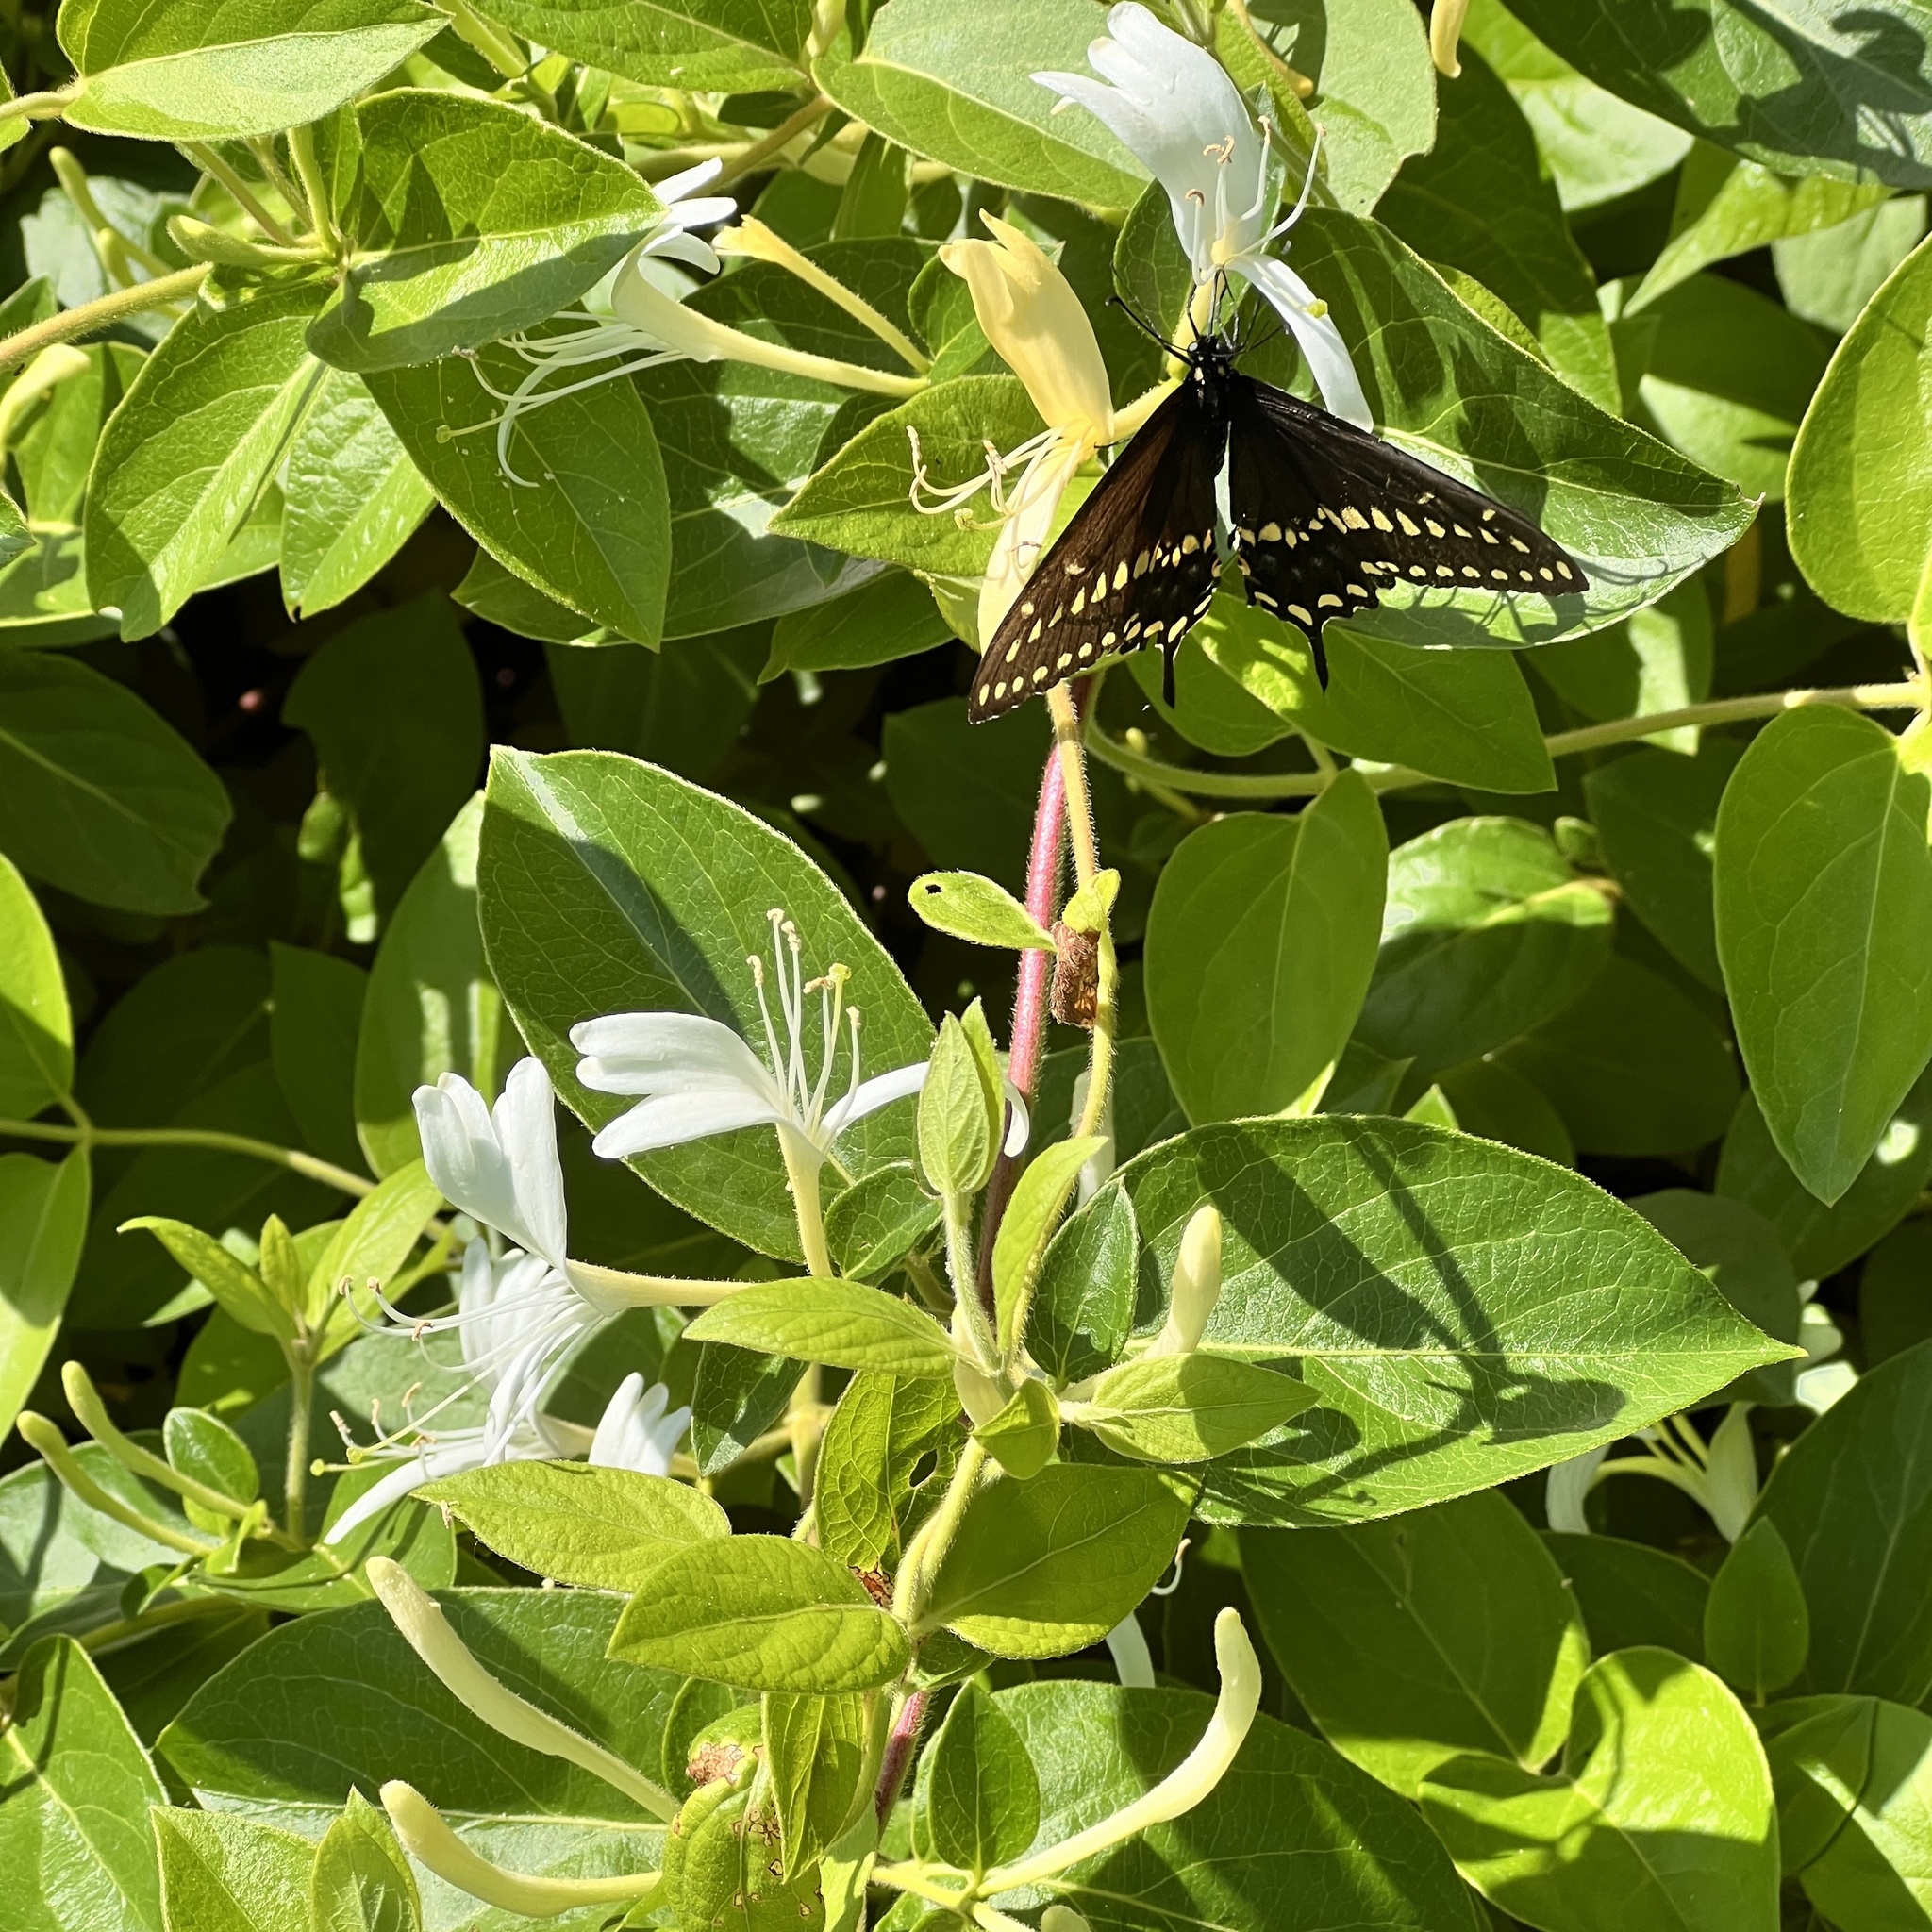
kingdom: Animalia
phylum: Arthropoda
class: Insecta
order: Lepidoptera
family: Papilionidae
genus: Papilio
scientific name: Papilio polyxenes
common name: Black swallowtail
